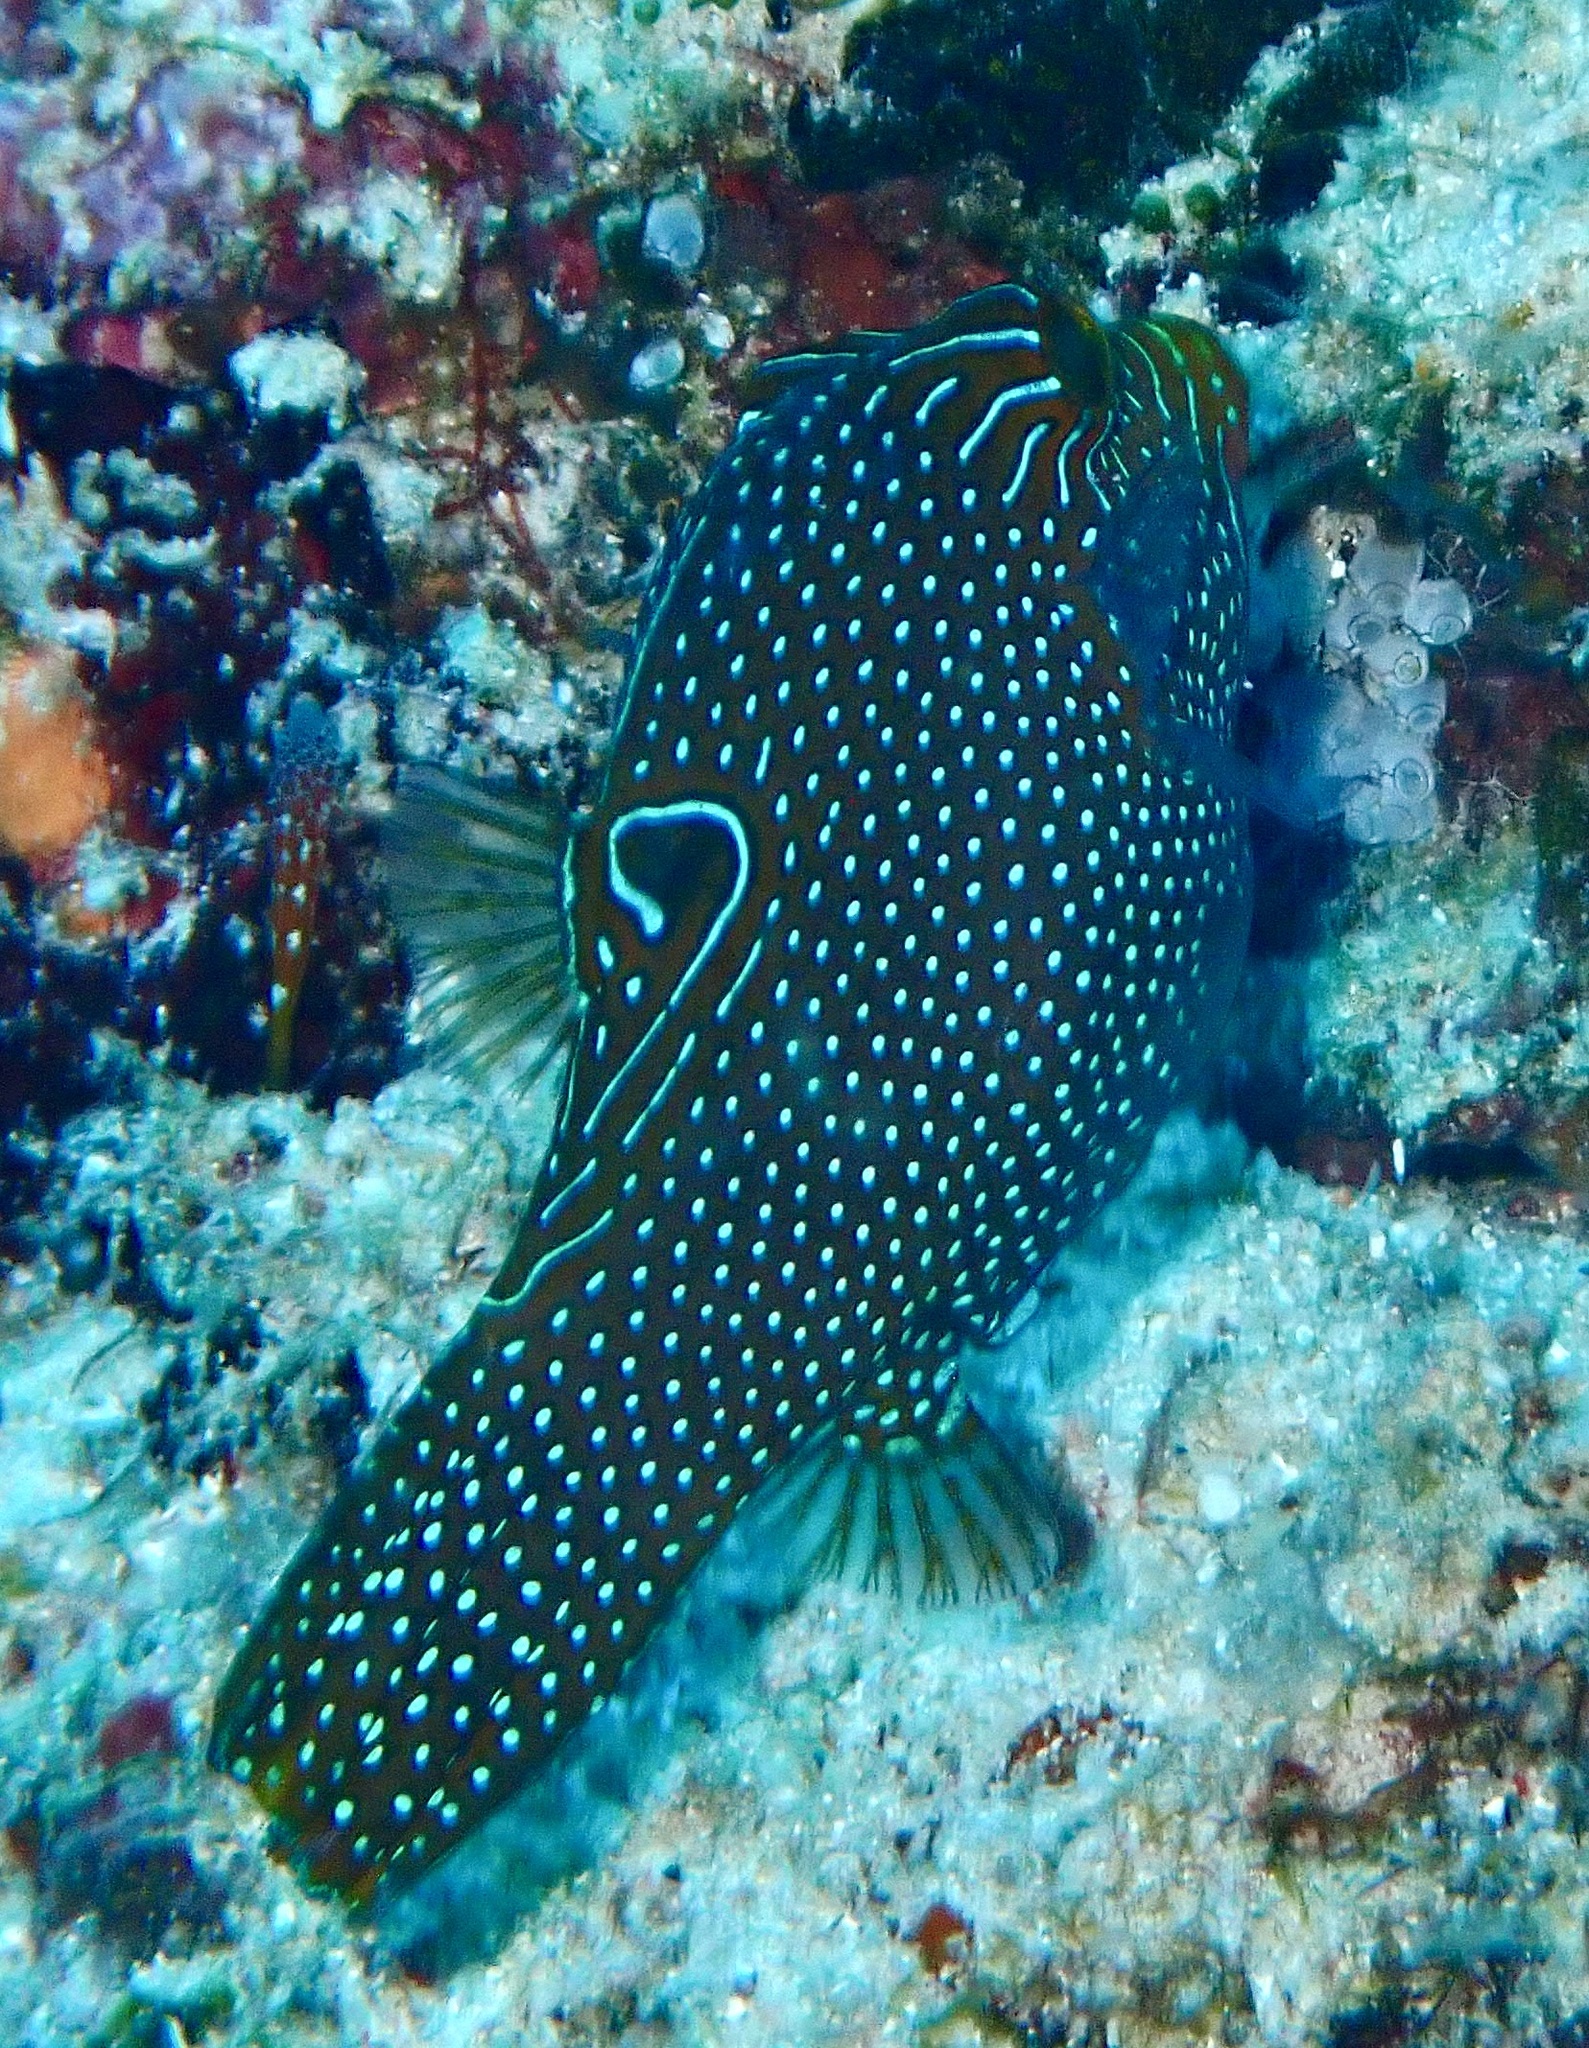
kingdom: Animalia
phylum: Chordata
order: Tetraodontiformes
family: Tetraodontidae
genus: Canthigaster
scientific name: Canthigaster papua
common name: False-eyed pufferfish
